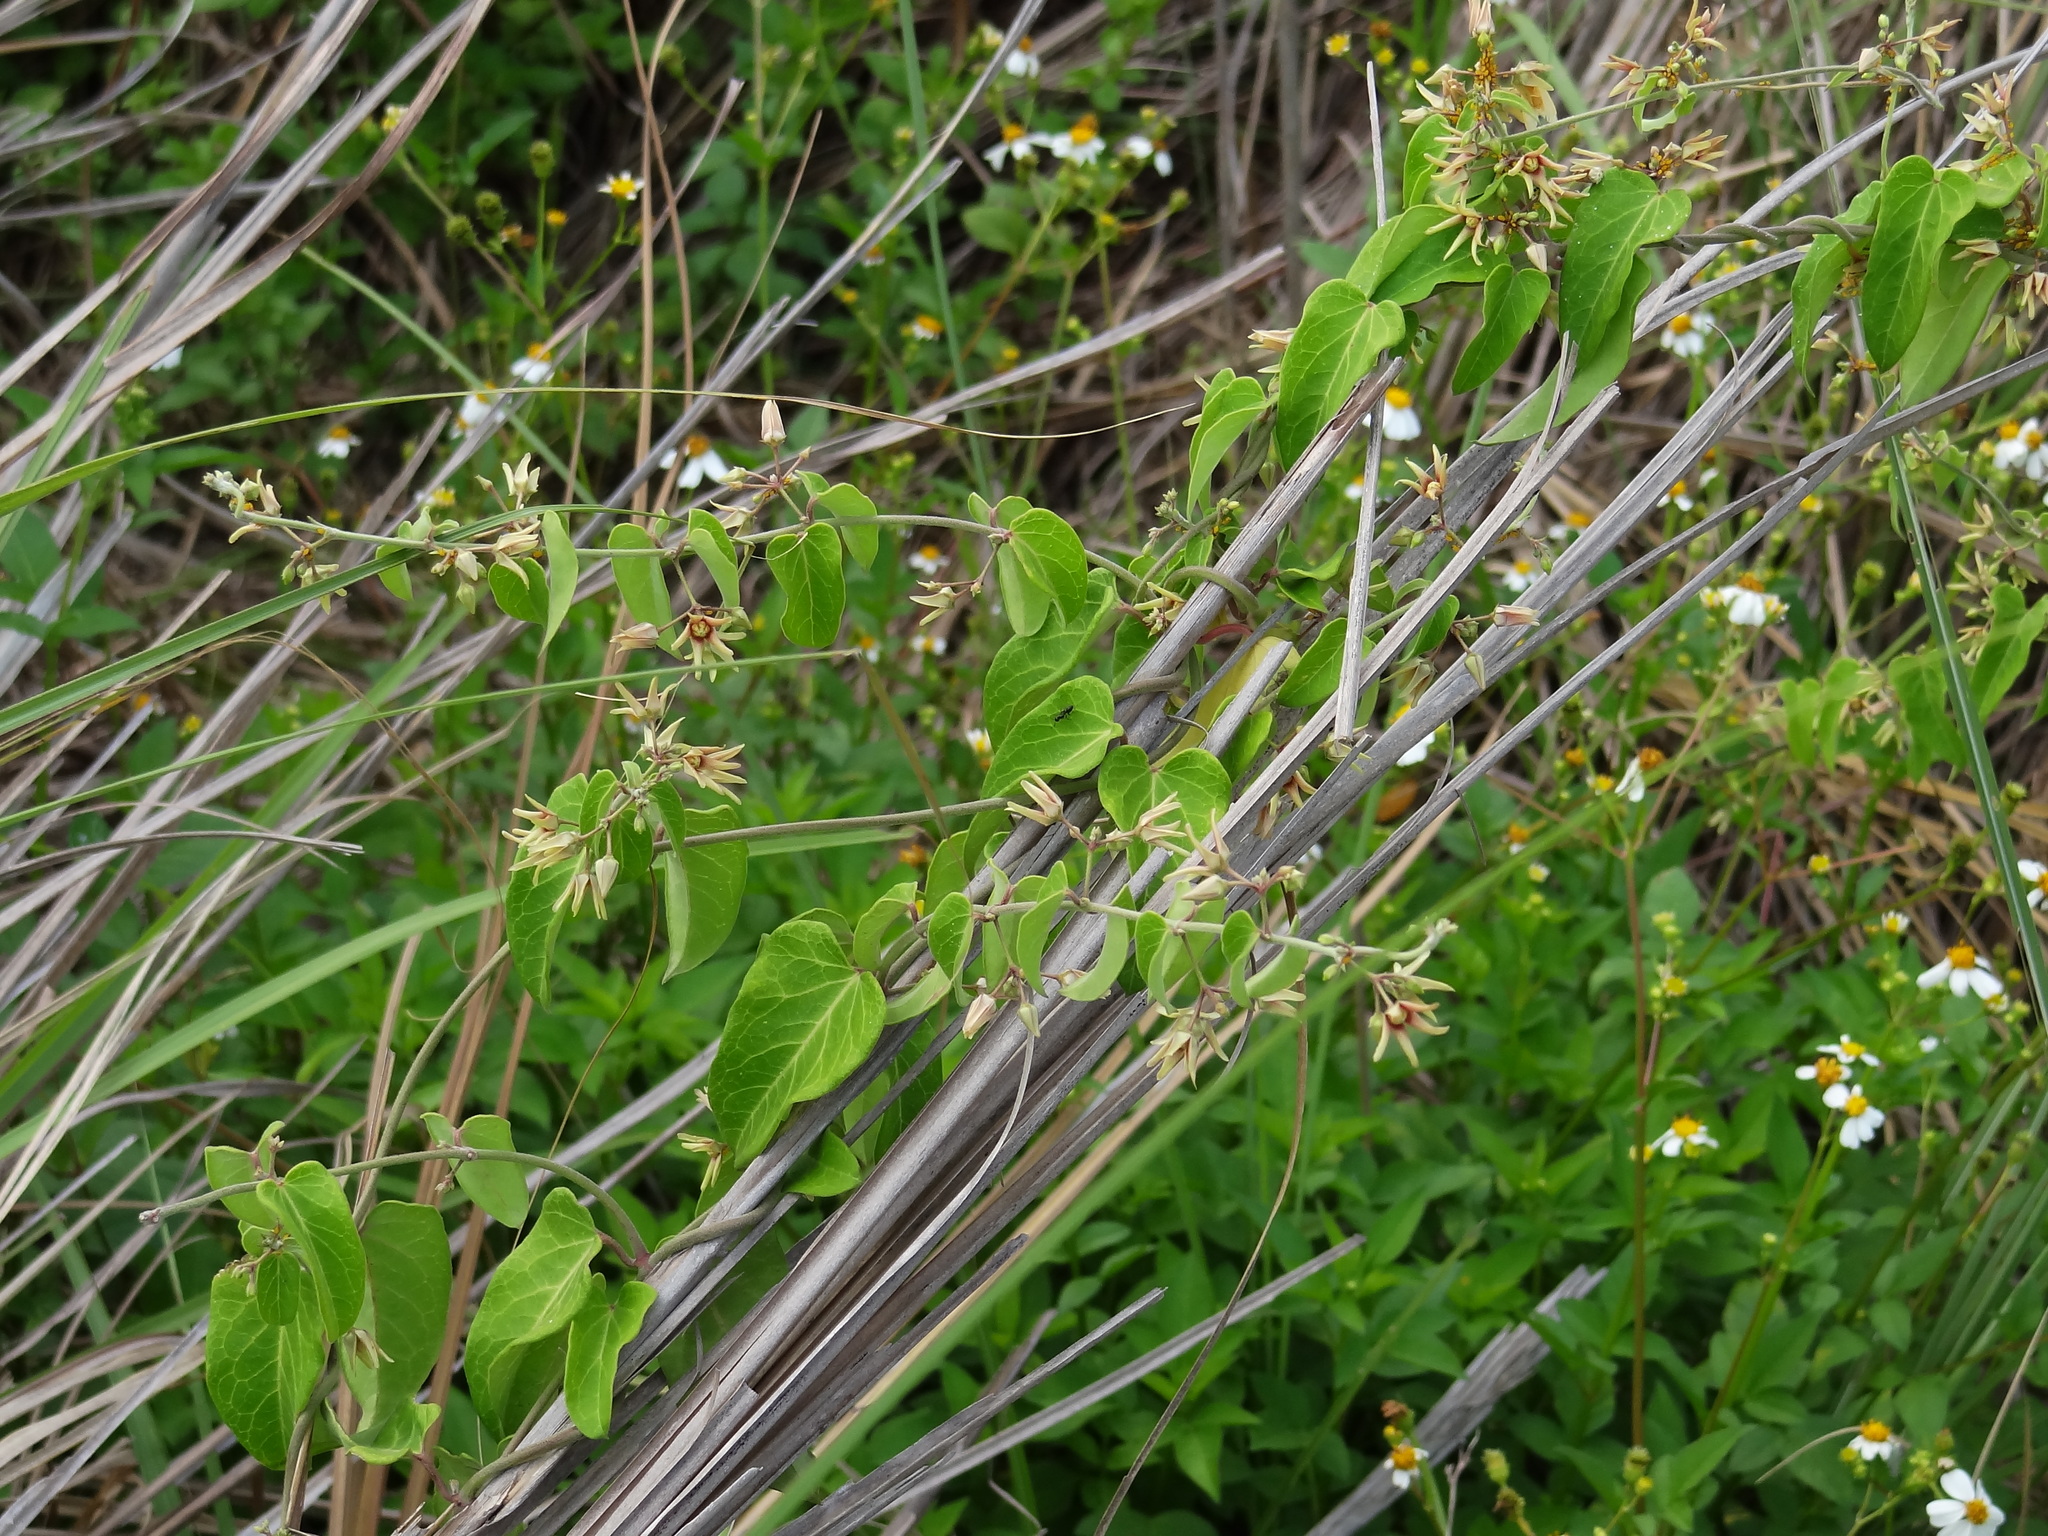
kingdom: Plantae
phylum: Tracheophyta
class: Magnoliopsida
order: Gentianales
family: Apocynaceae
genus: Cynanchum
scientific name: Cynanchum mooreanum
